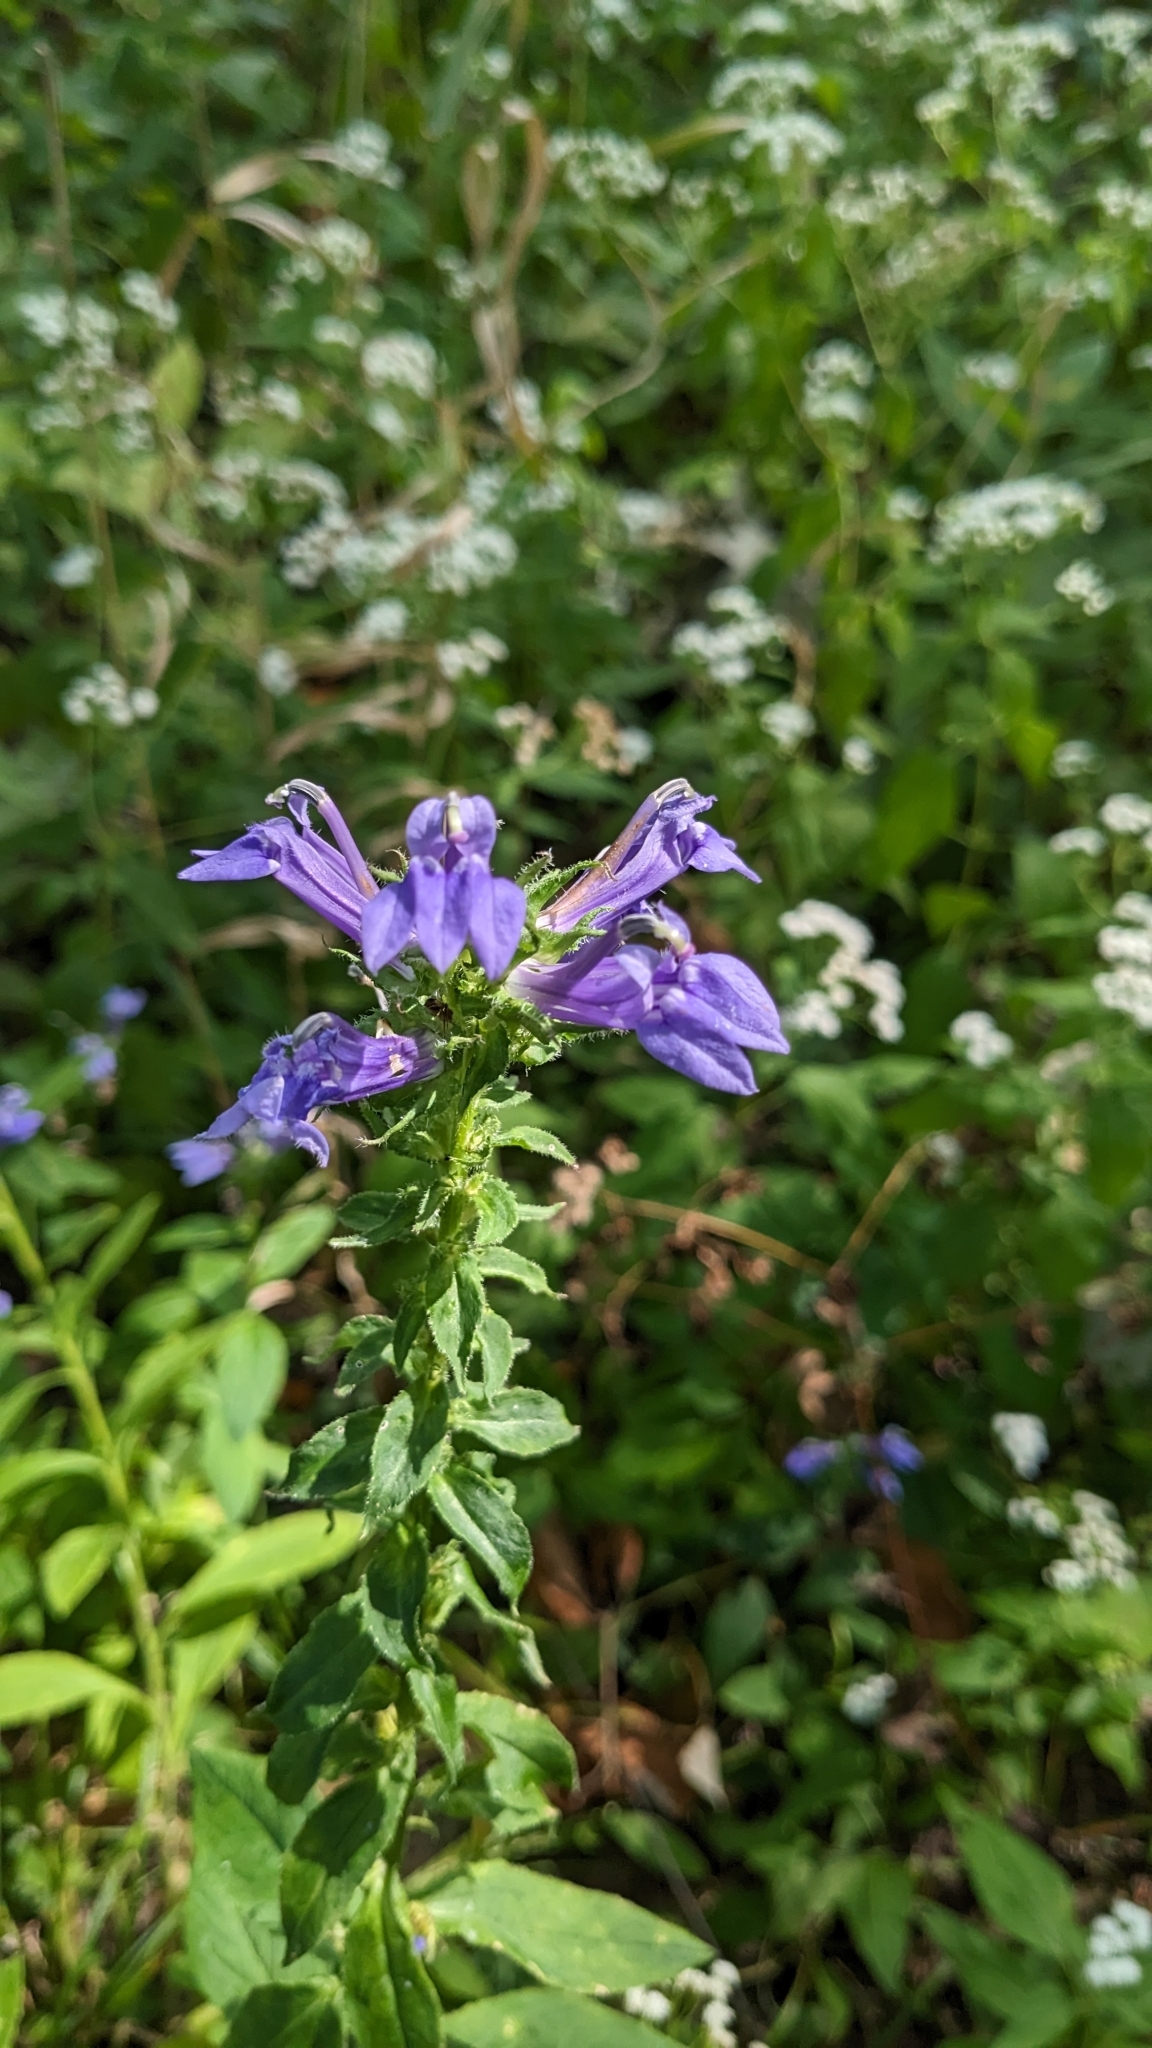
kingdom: Plantae
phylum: Tracheophyta
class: Magnoliopsida
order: Asterales
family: Campanulaceae
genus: Lobelia
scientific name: Lobelia siphilitica
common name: Great lobelia
